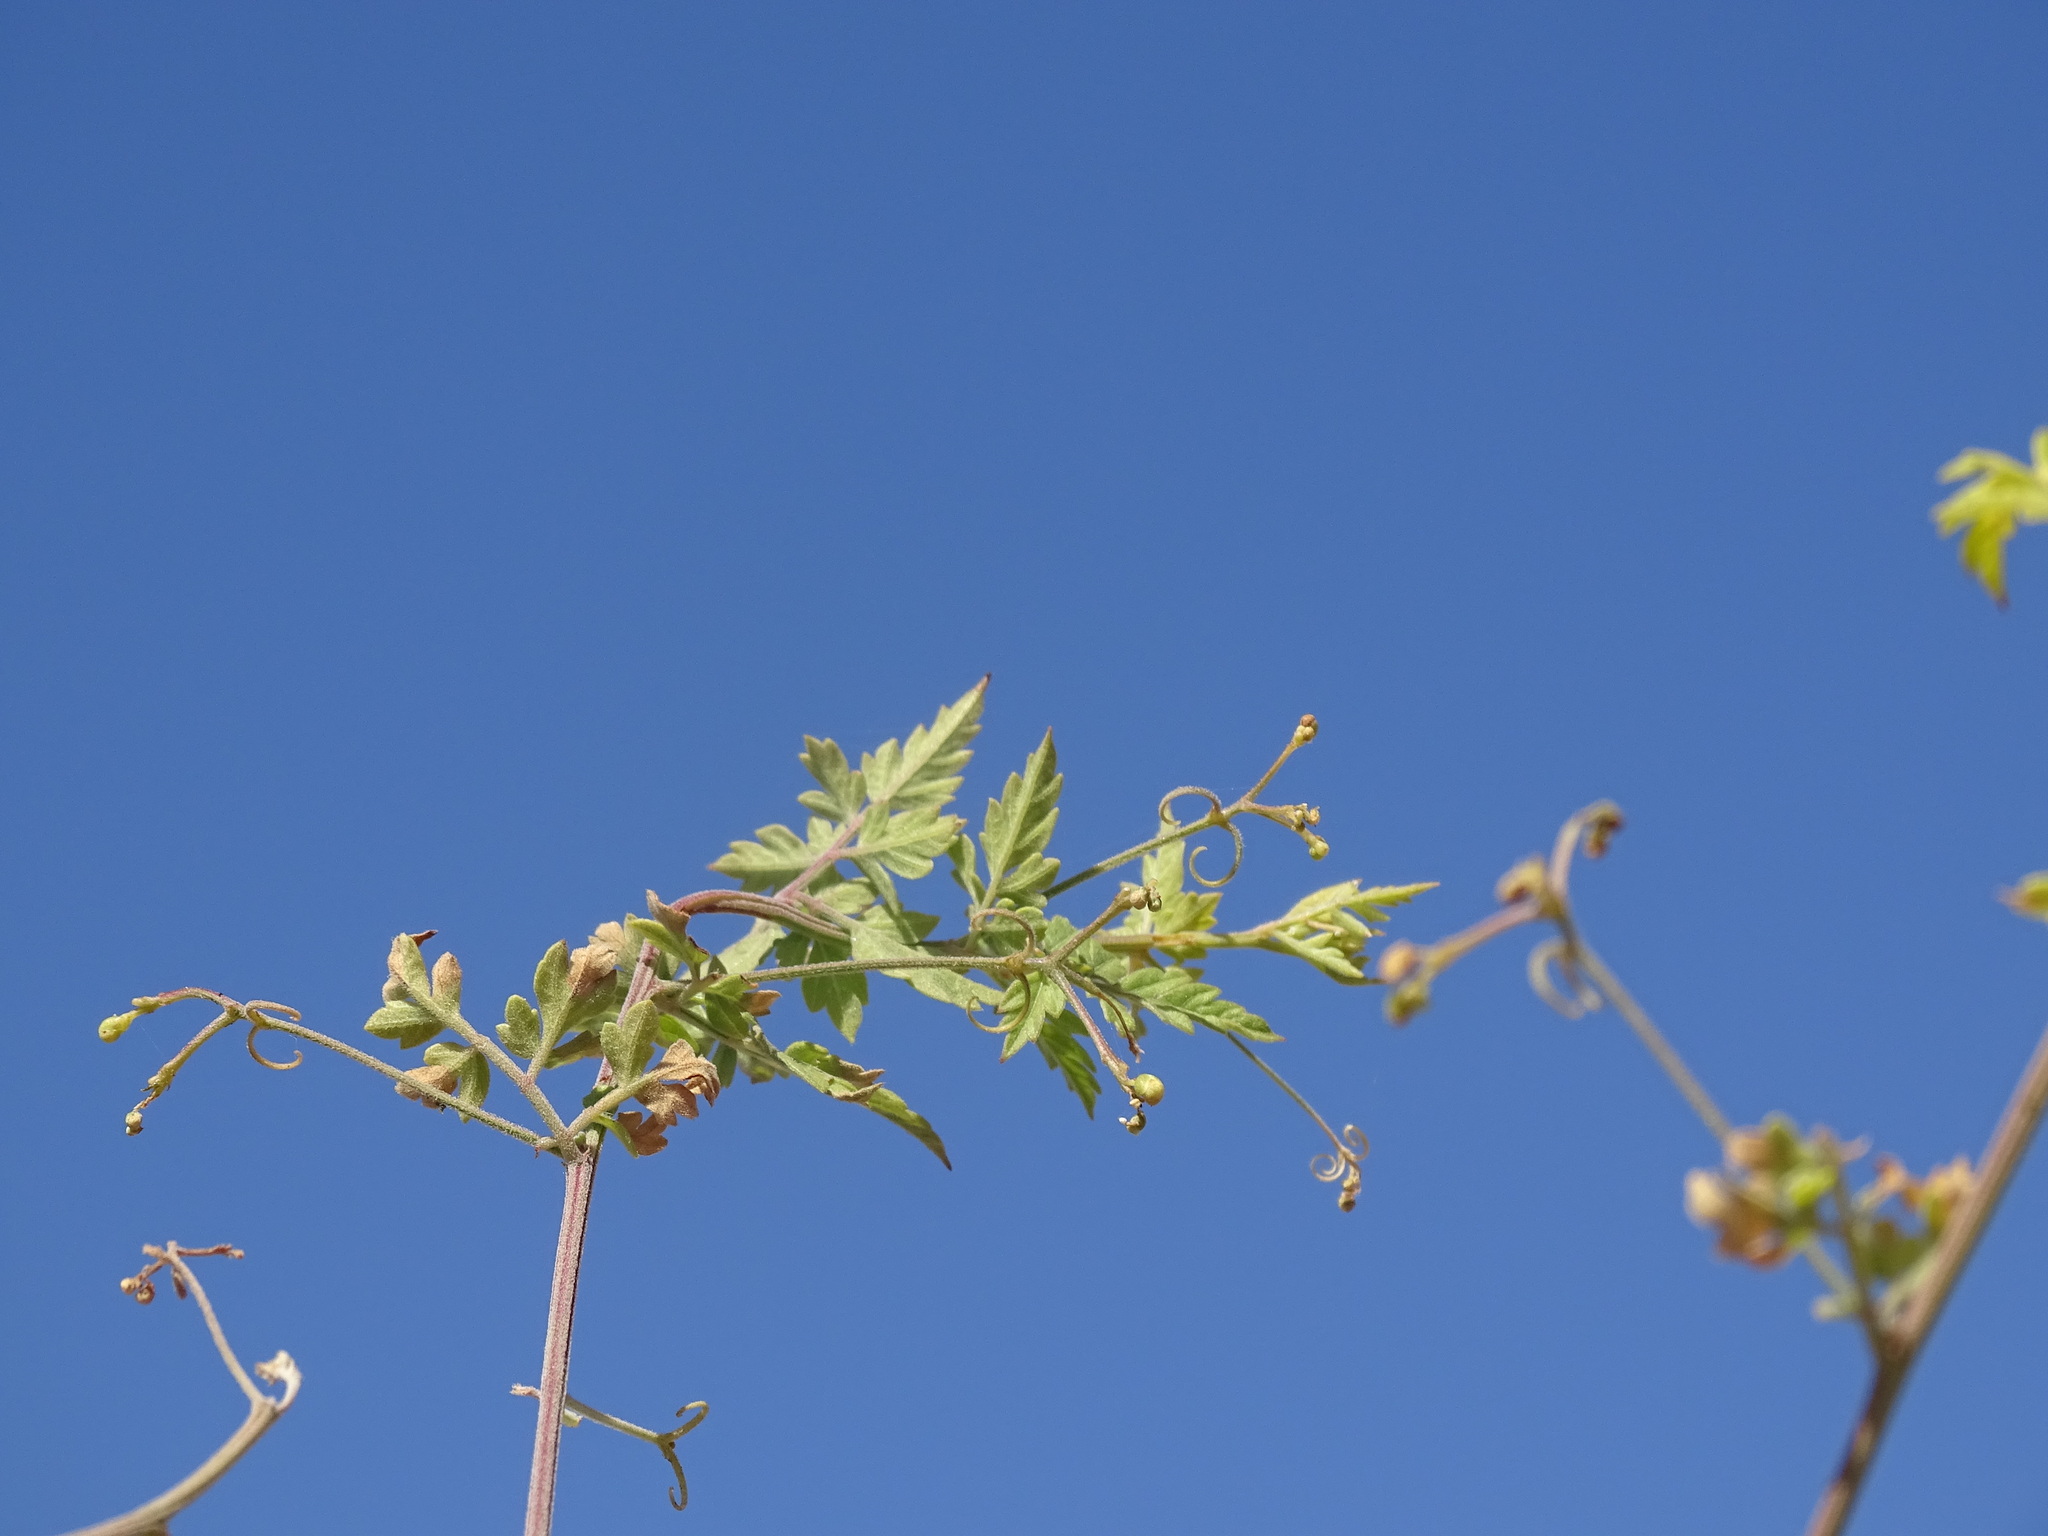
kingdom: Plantae
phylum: Tracheophyta
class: Magnoliopsida
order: Sapindales
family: Sapindaceae
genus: Cardiospermum
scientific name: Cardiospermum corindum
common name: Faux persil
